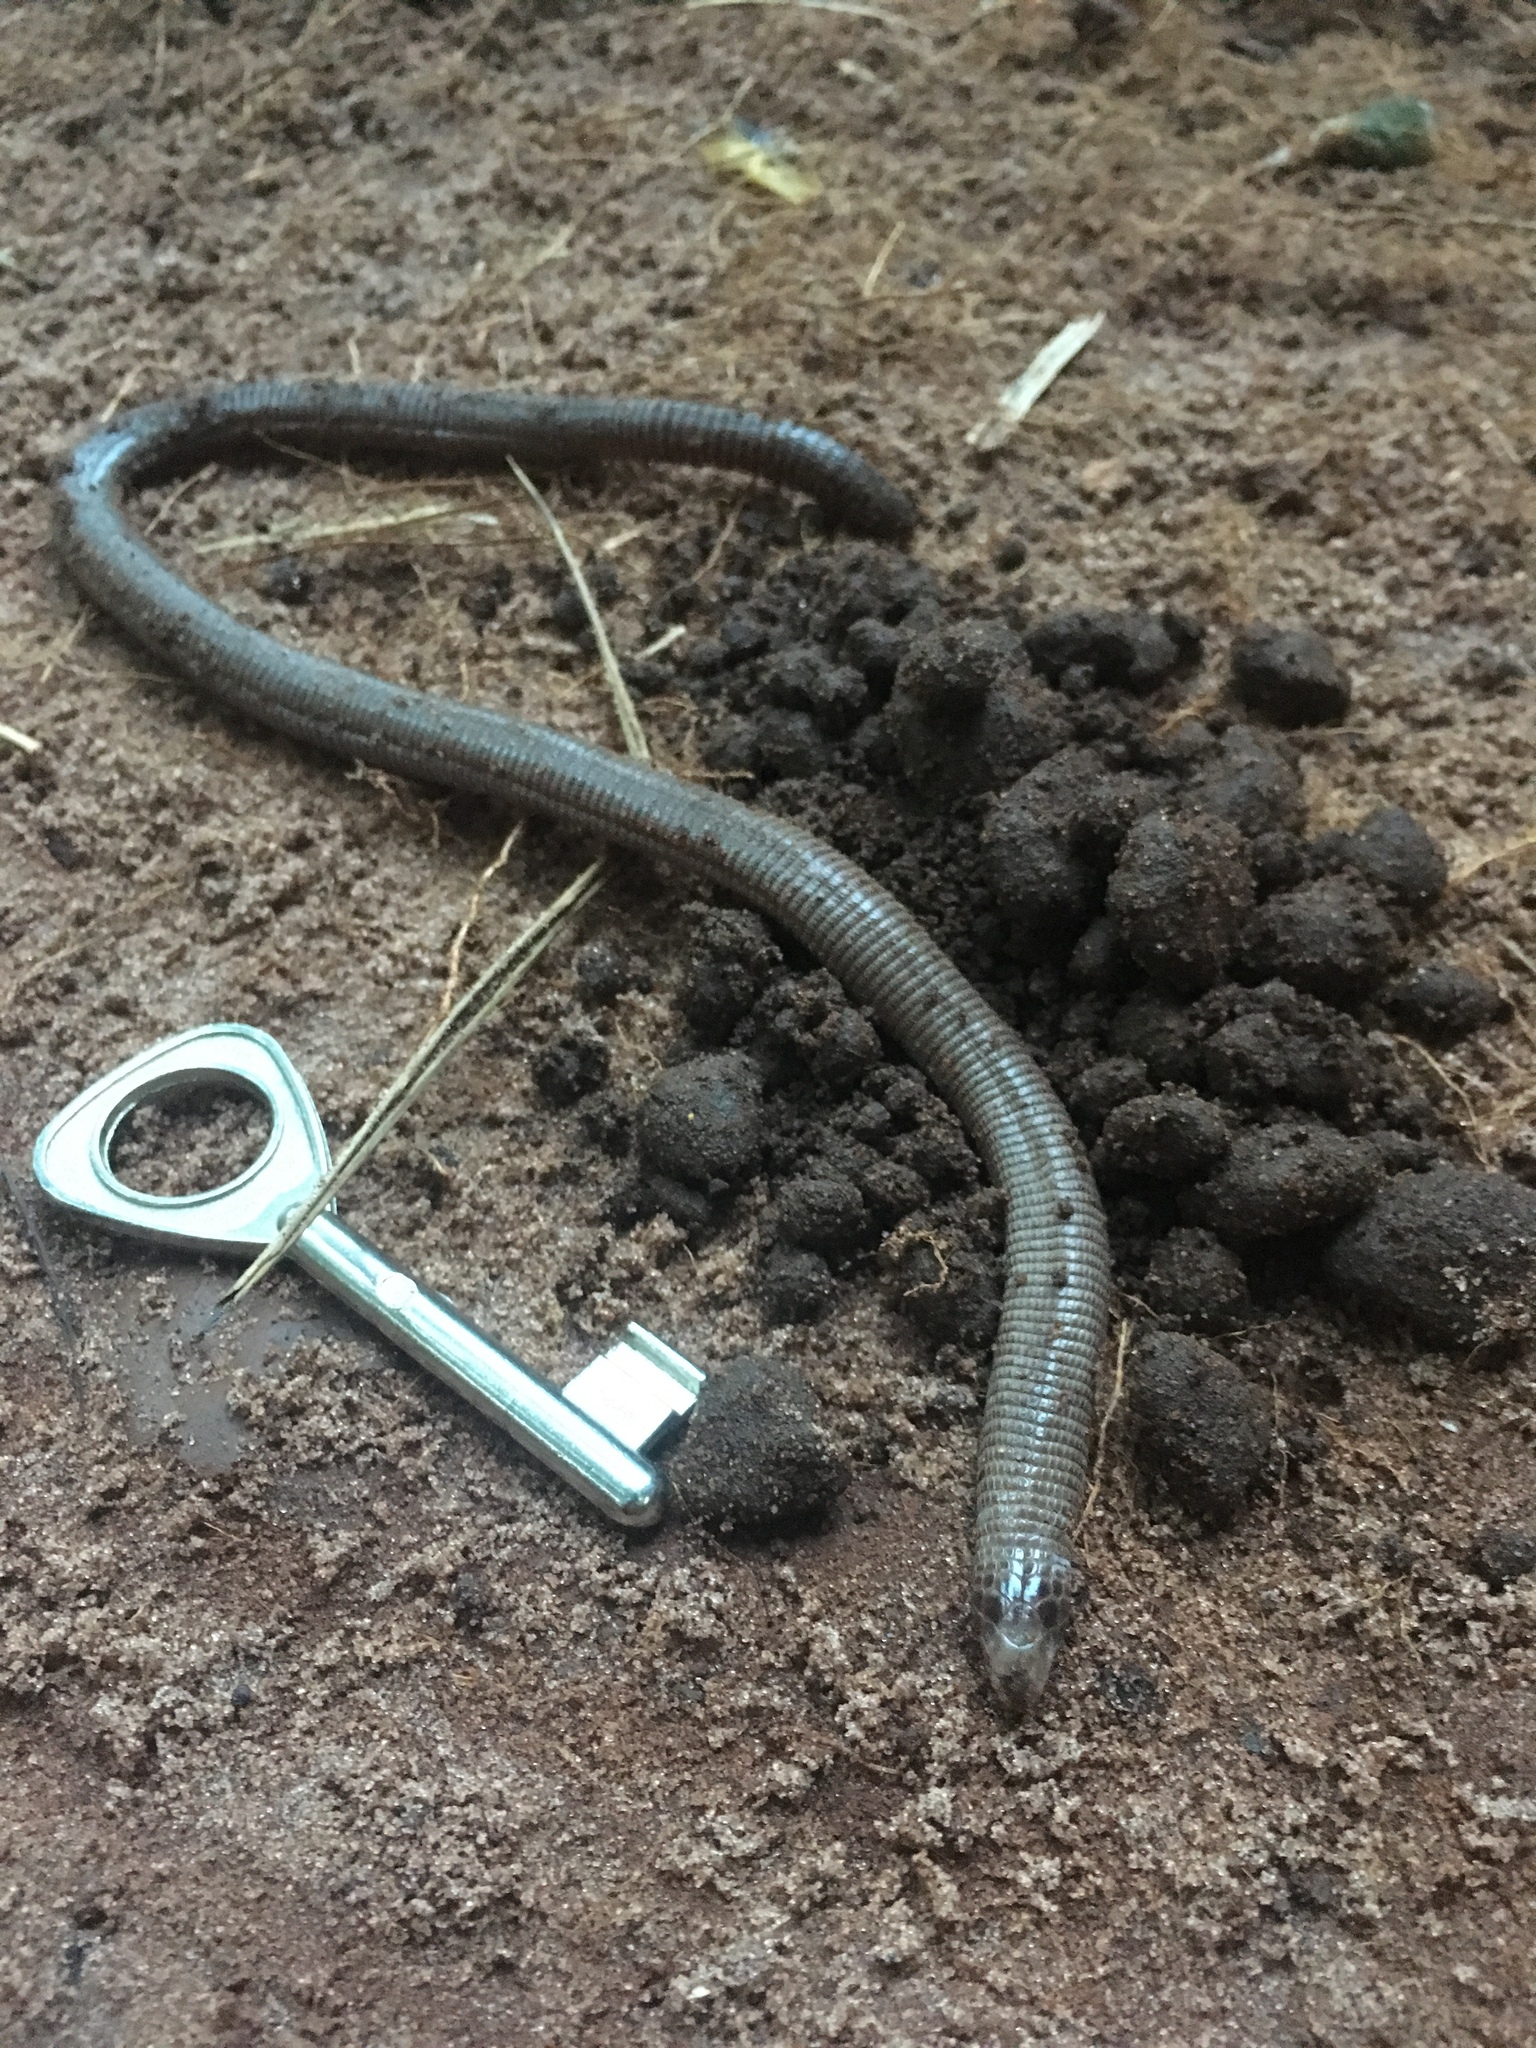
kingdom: Animalia
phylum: Chordata
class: Squamata
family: Amphisbaenidae
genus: Amphisbaena
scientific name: Amphisbaena mertensii
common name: Mertens' worm lizard
